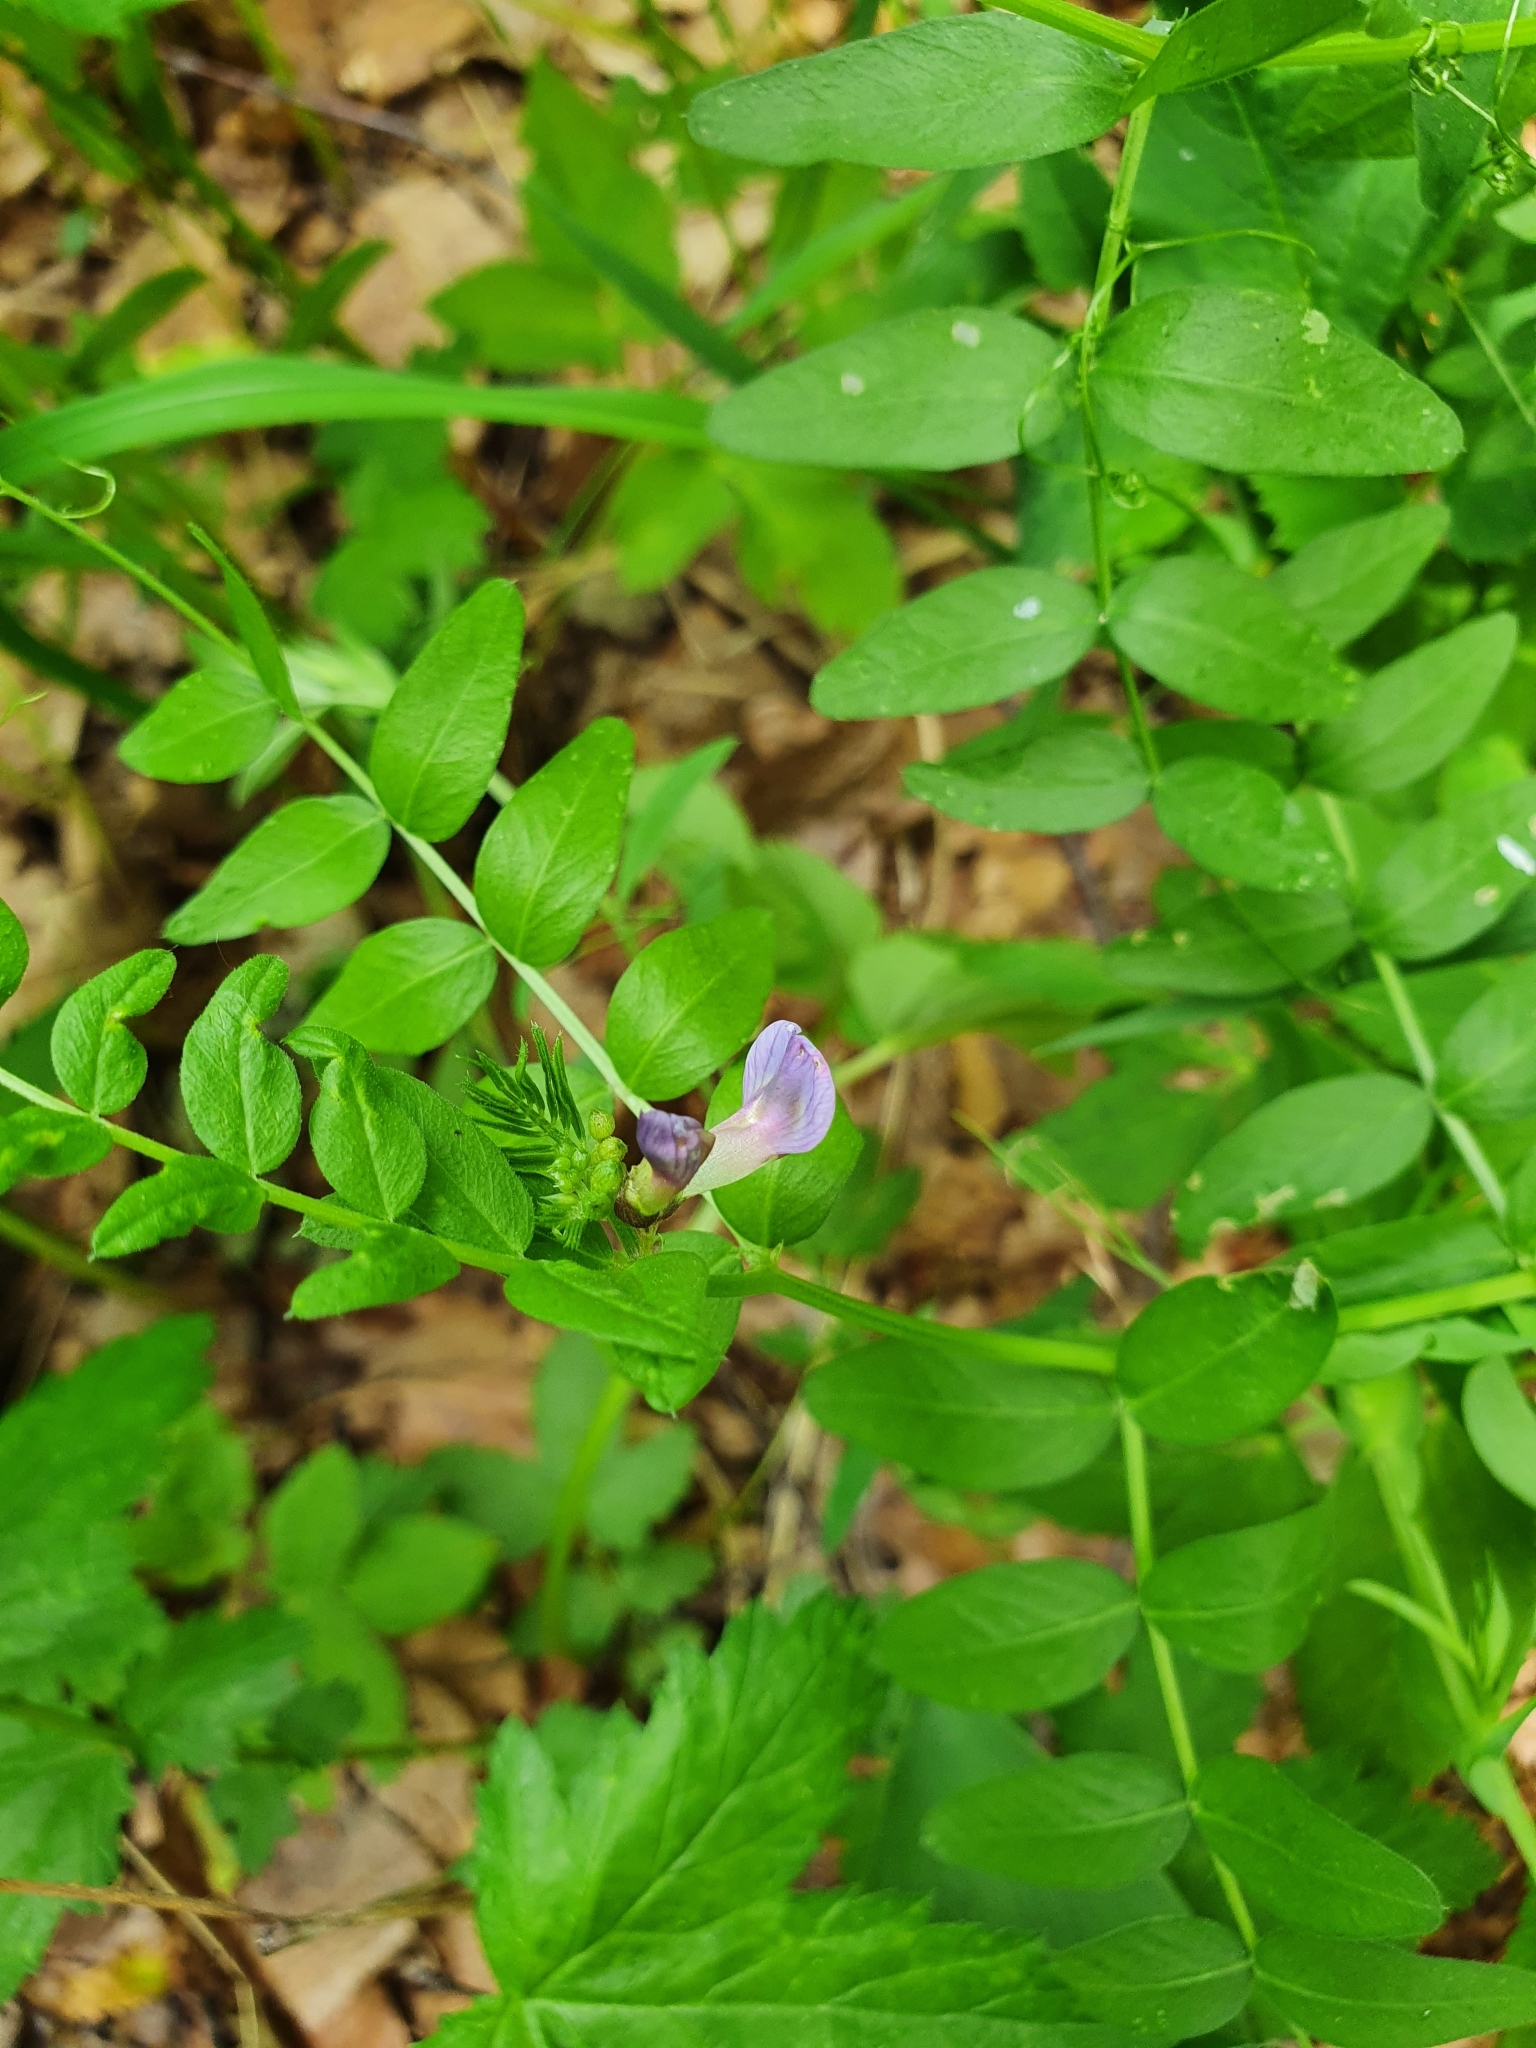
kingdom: Plantae
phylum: Tracheophyta
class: Magnoliopsida
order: Fabales
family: Fabaceae
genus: Vicia
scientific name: Vicia sepium
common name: Bush vetch
